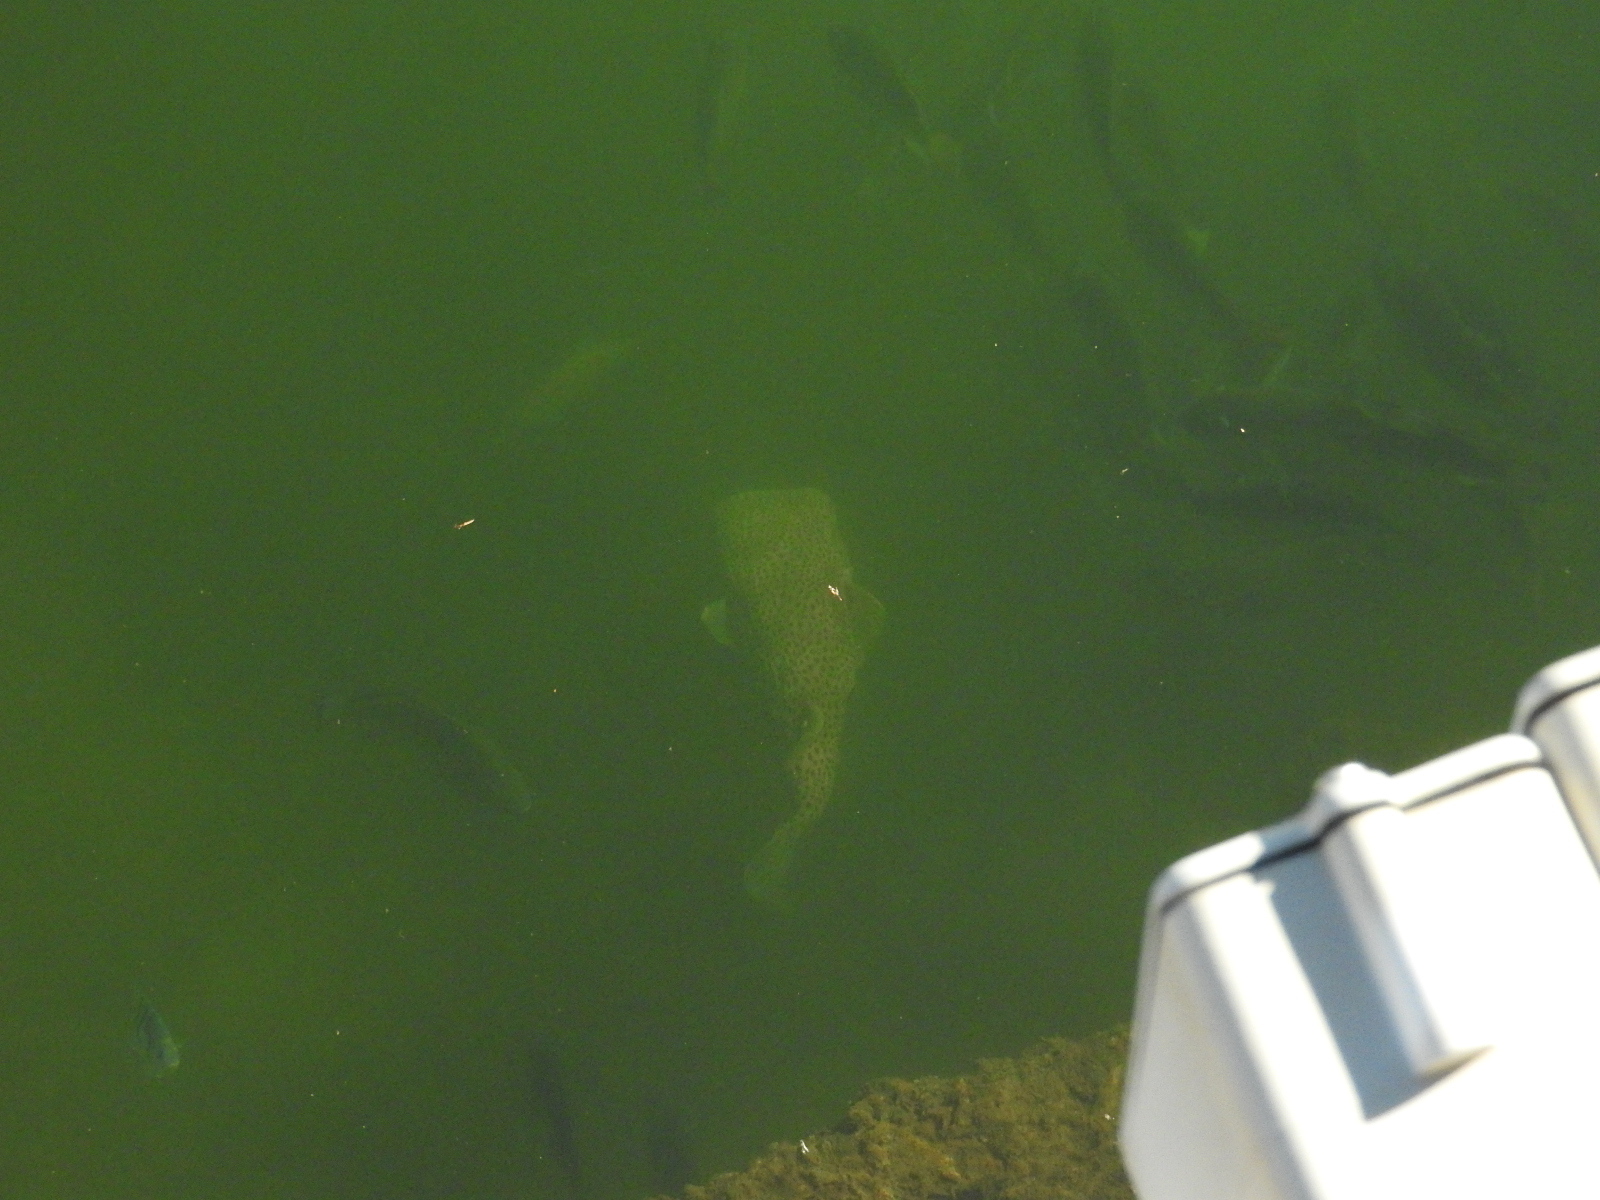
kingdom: Animalia
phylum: Chordata
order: Tetraodontiformes
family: Diodontidae
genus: Diodon
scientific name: Diodon hystrix
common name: Giant porcupinefish
